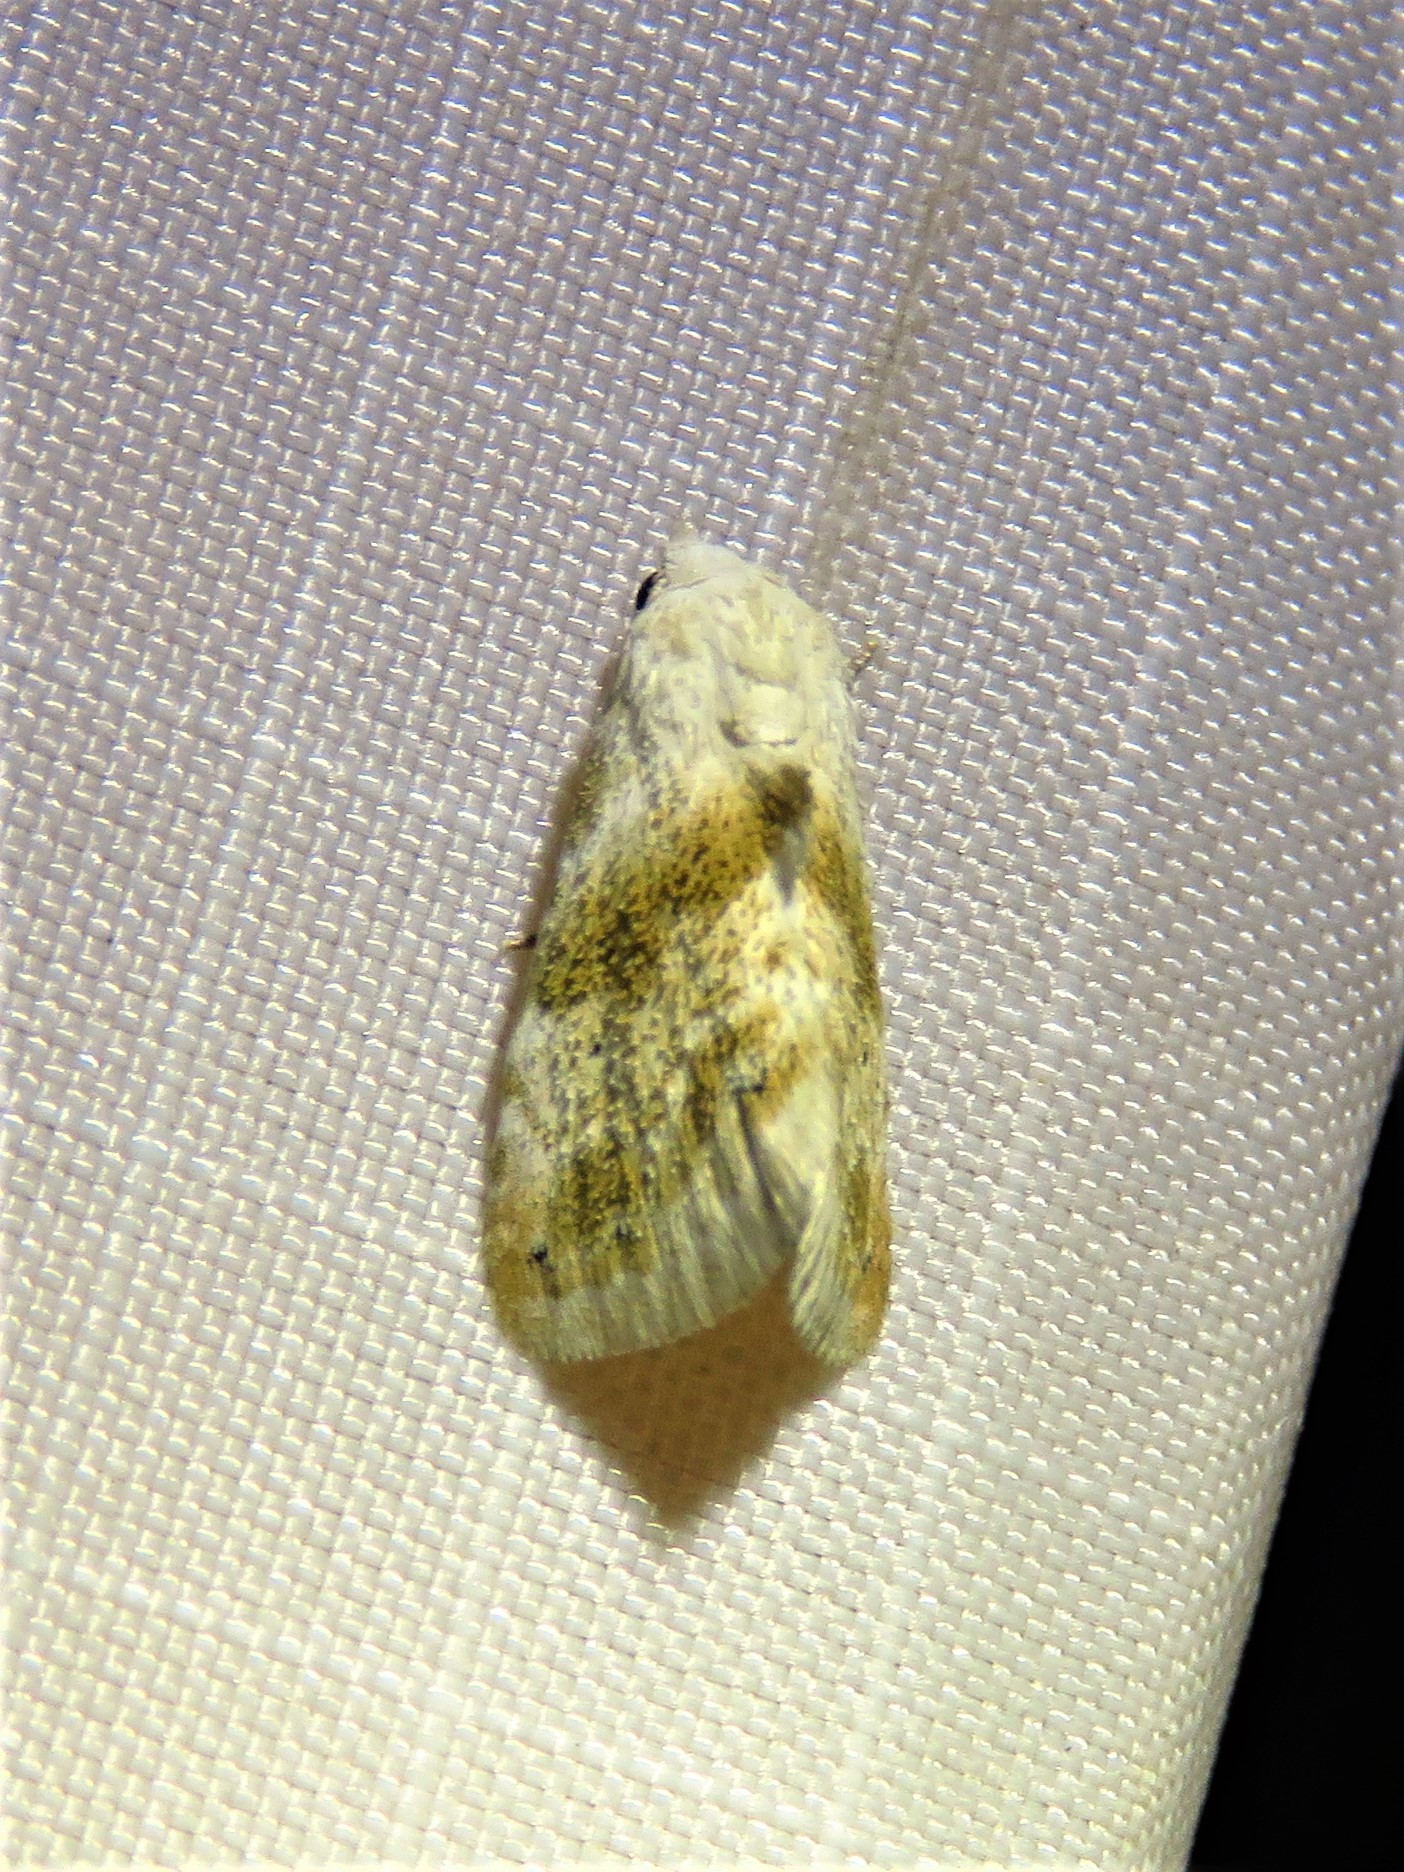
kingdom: Animalia
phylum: Arthropoda
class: Insecta
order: Lepidoptera
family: Noctuidae
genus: Eublemma
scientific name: Eublemma minima
